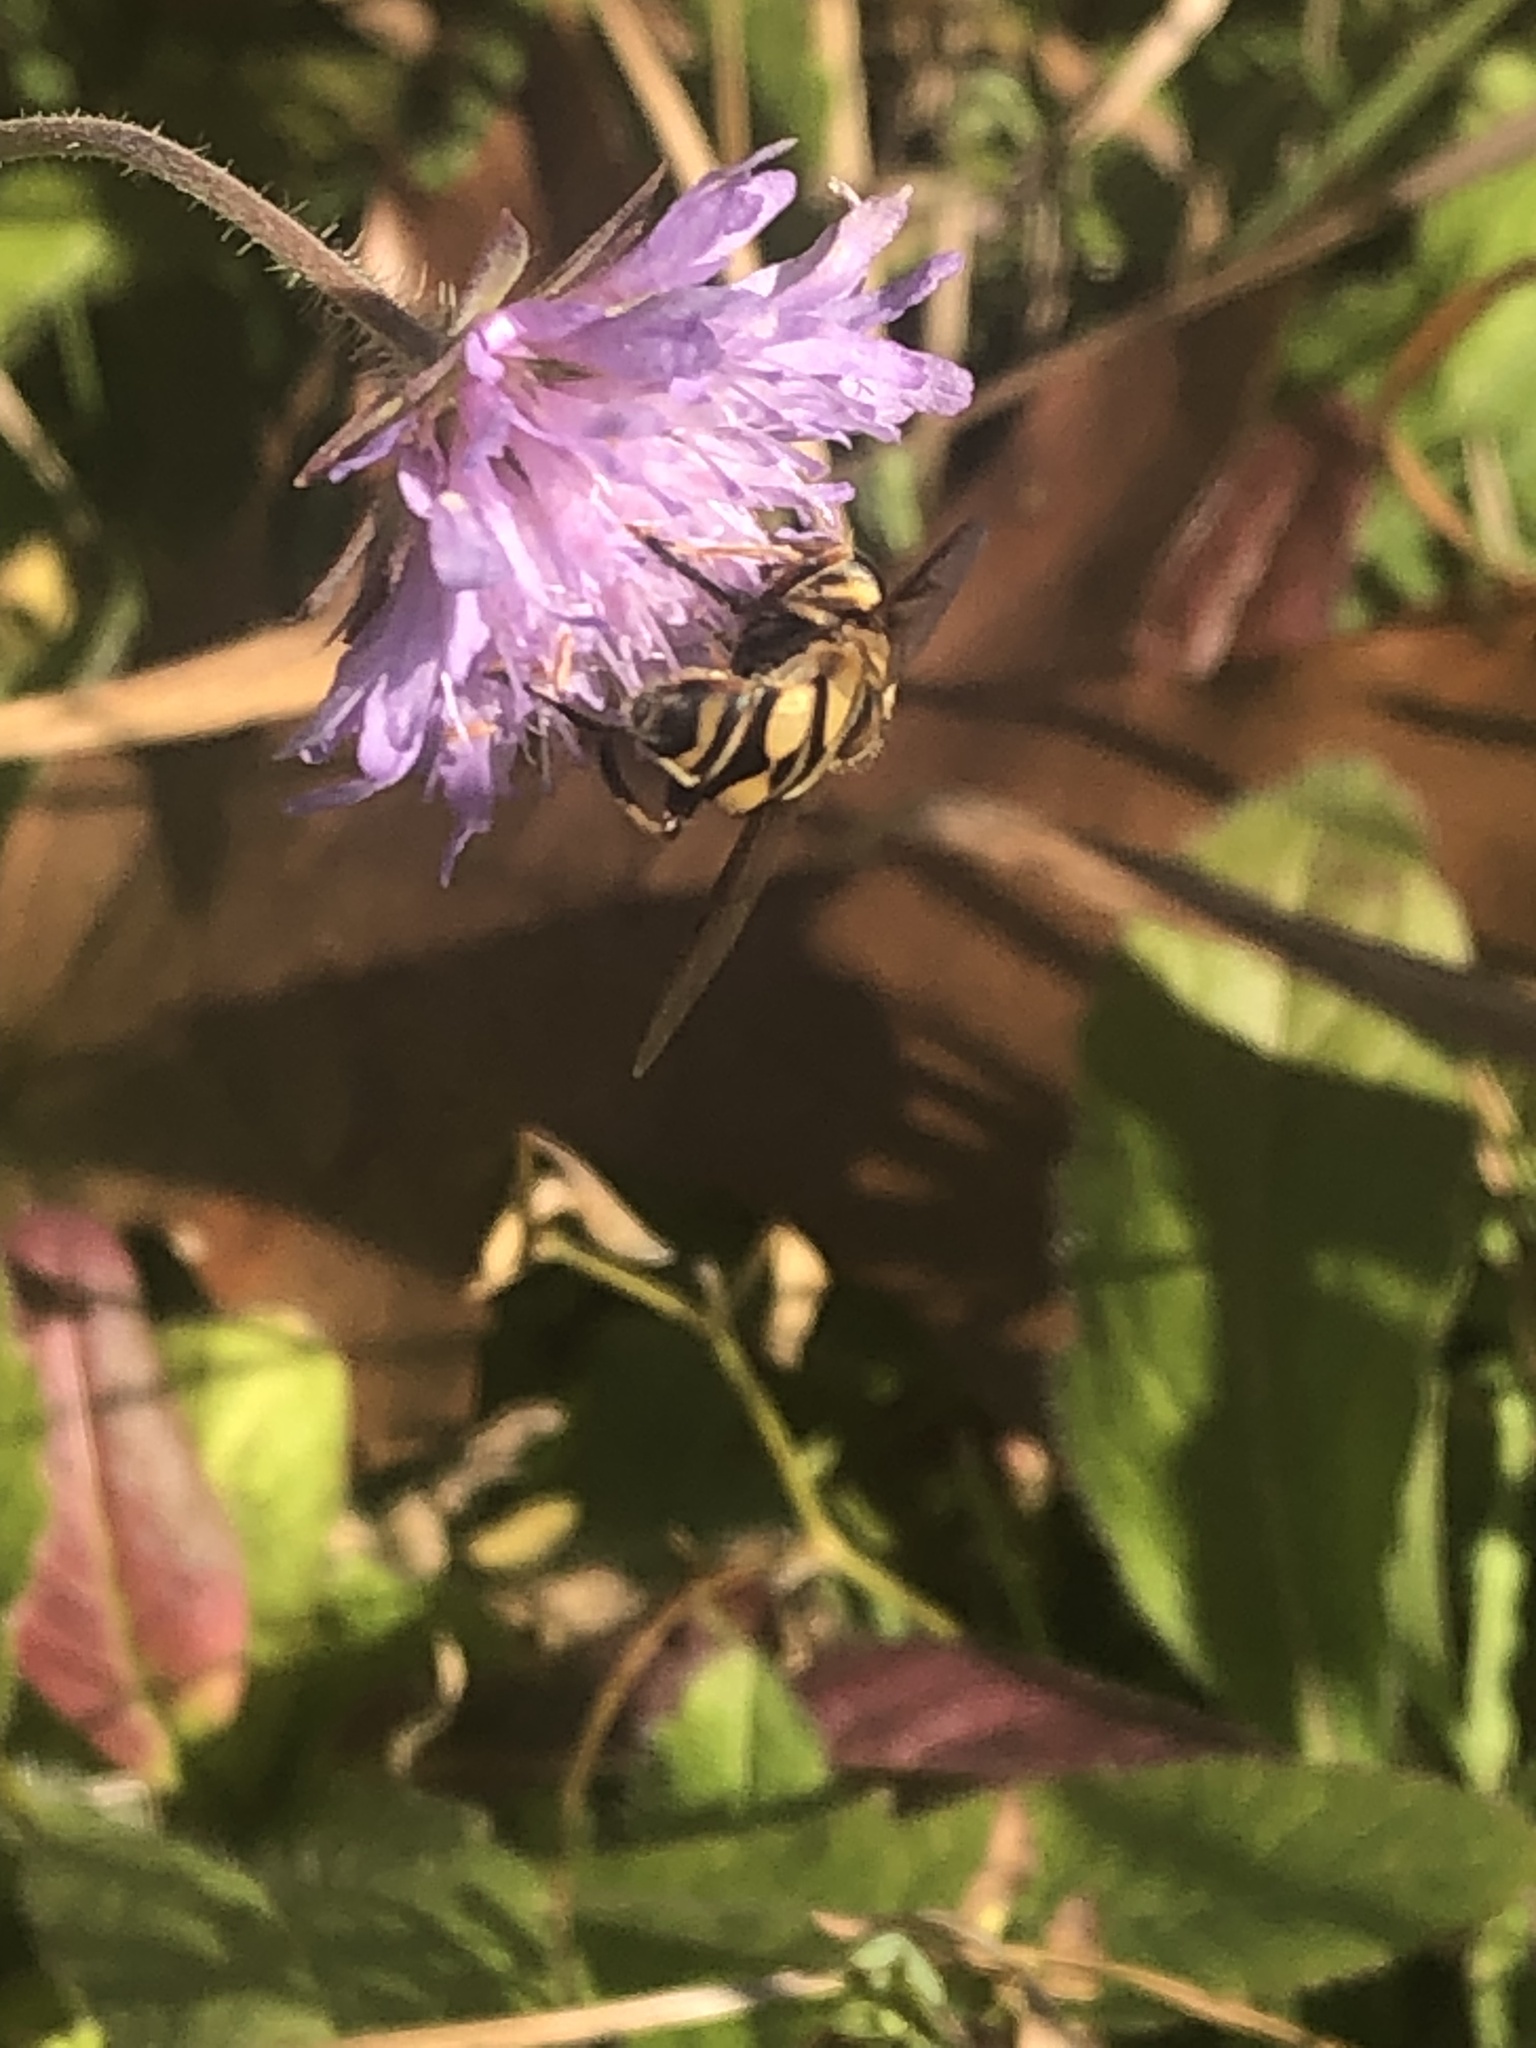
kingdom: Animalia
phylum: Arthropoda
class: Insecta
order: Diptera
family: Syrphidae
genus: Helophilus
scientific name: Helophilus fasciatus
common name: Narrow-headed marsh fly
